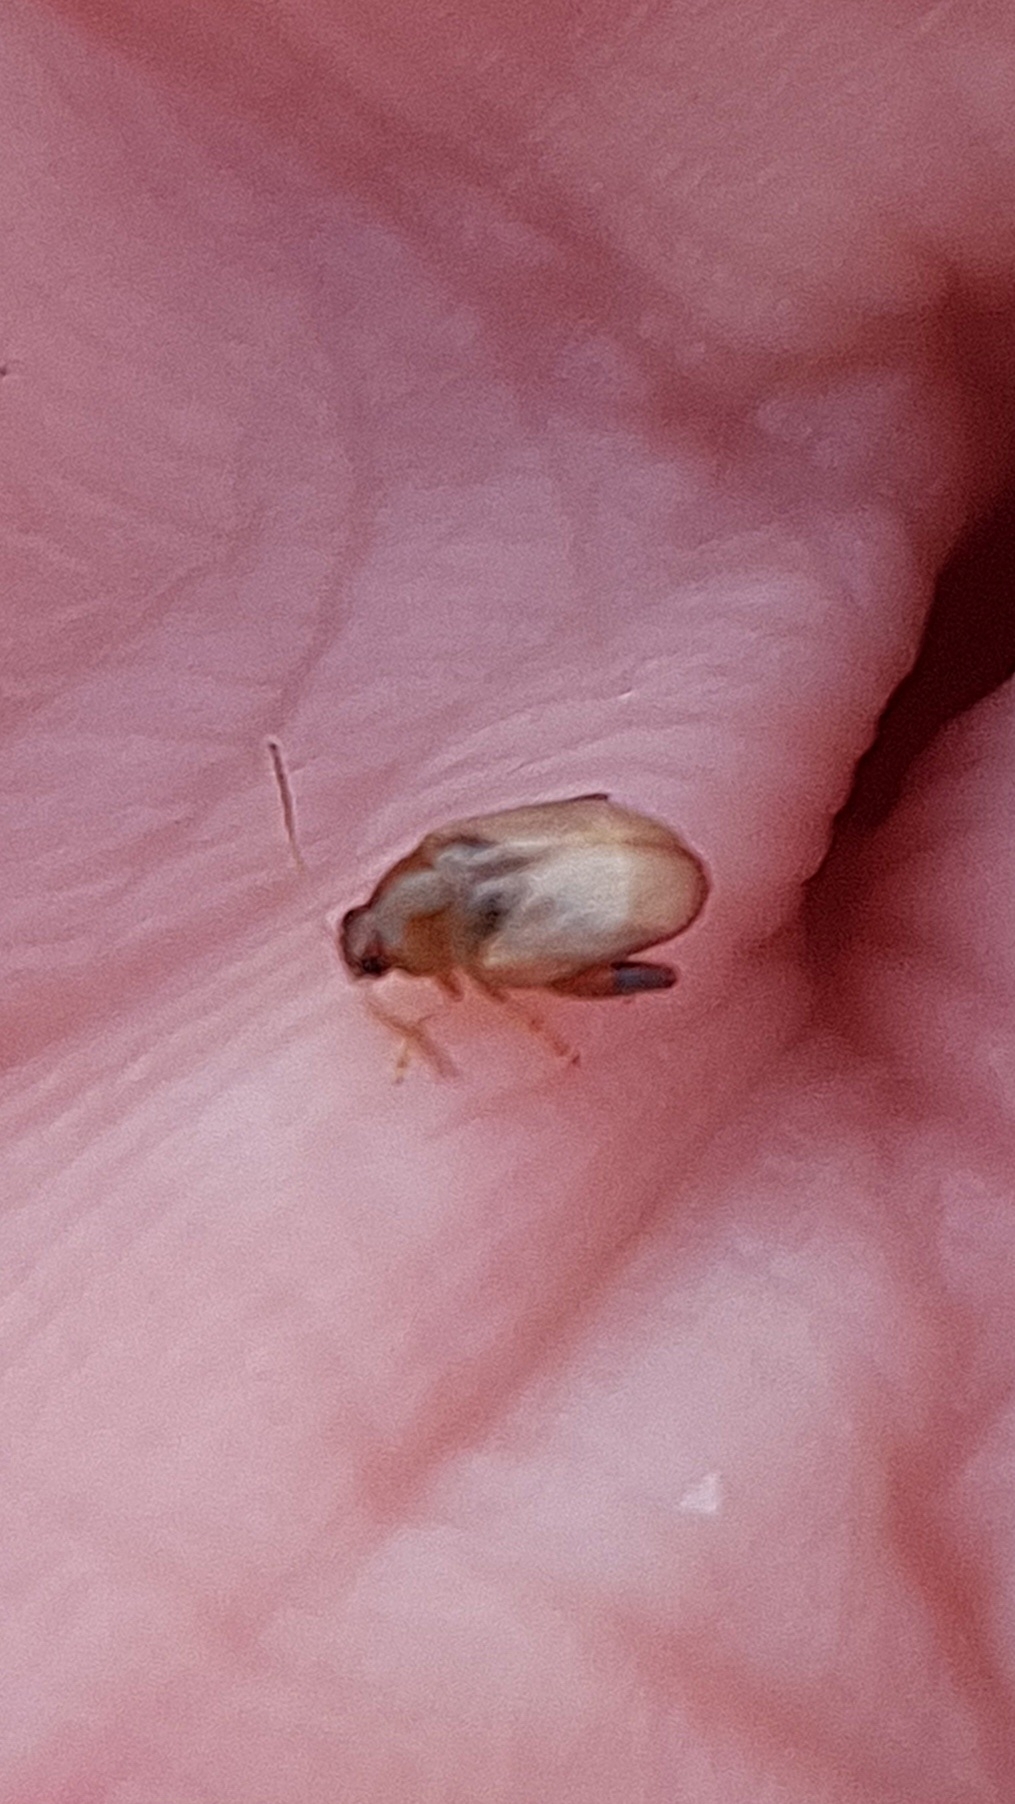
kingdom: Animalia
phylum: Arthropoda
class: Insecta
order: Coleoptera
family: Chrysomelidae
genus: Psylloides
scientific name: Psylloides marcida
